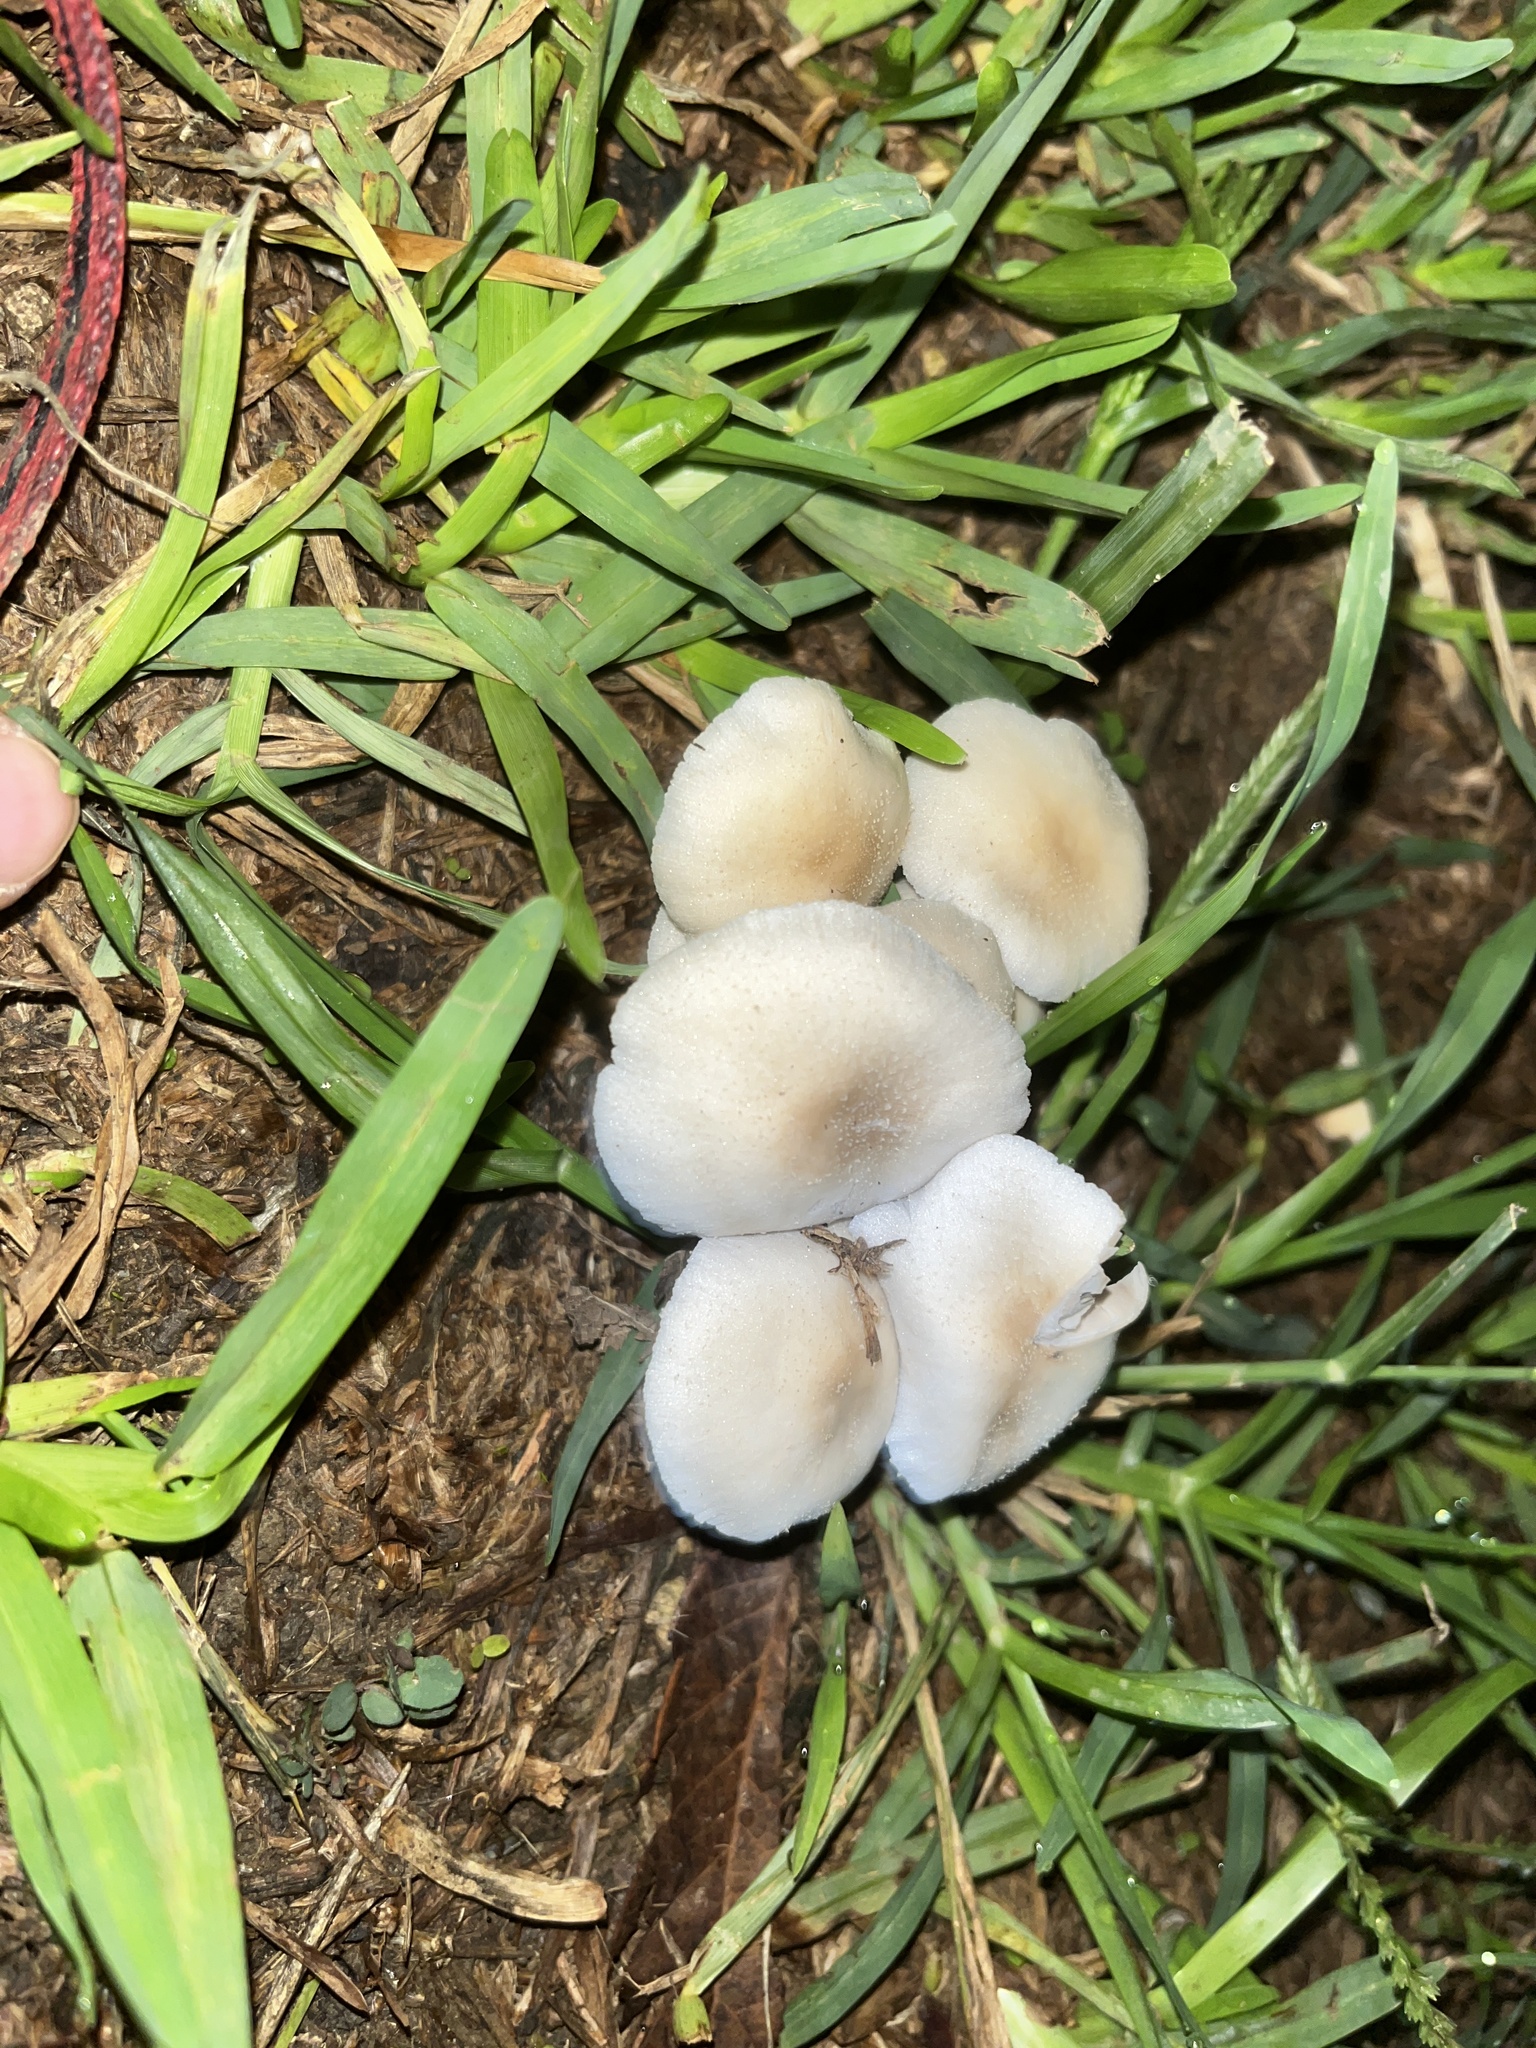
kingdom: Fungi
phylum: Basidiomycota
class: Agaricomycetes
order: Agaricales
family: Psathyrellaceae
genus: Candolleomyces
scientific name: Candolleomyces candolleanus
